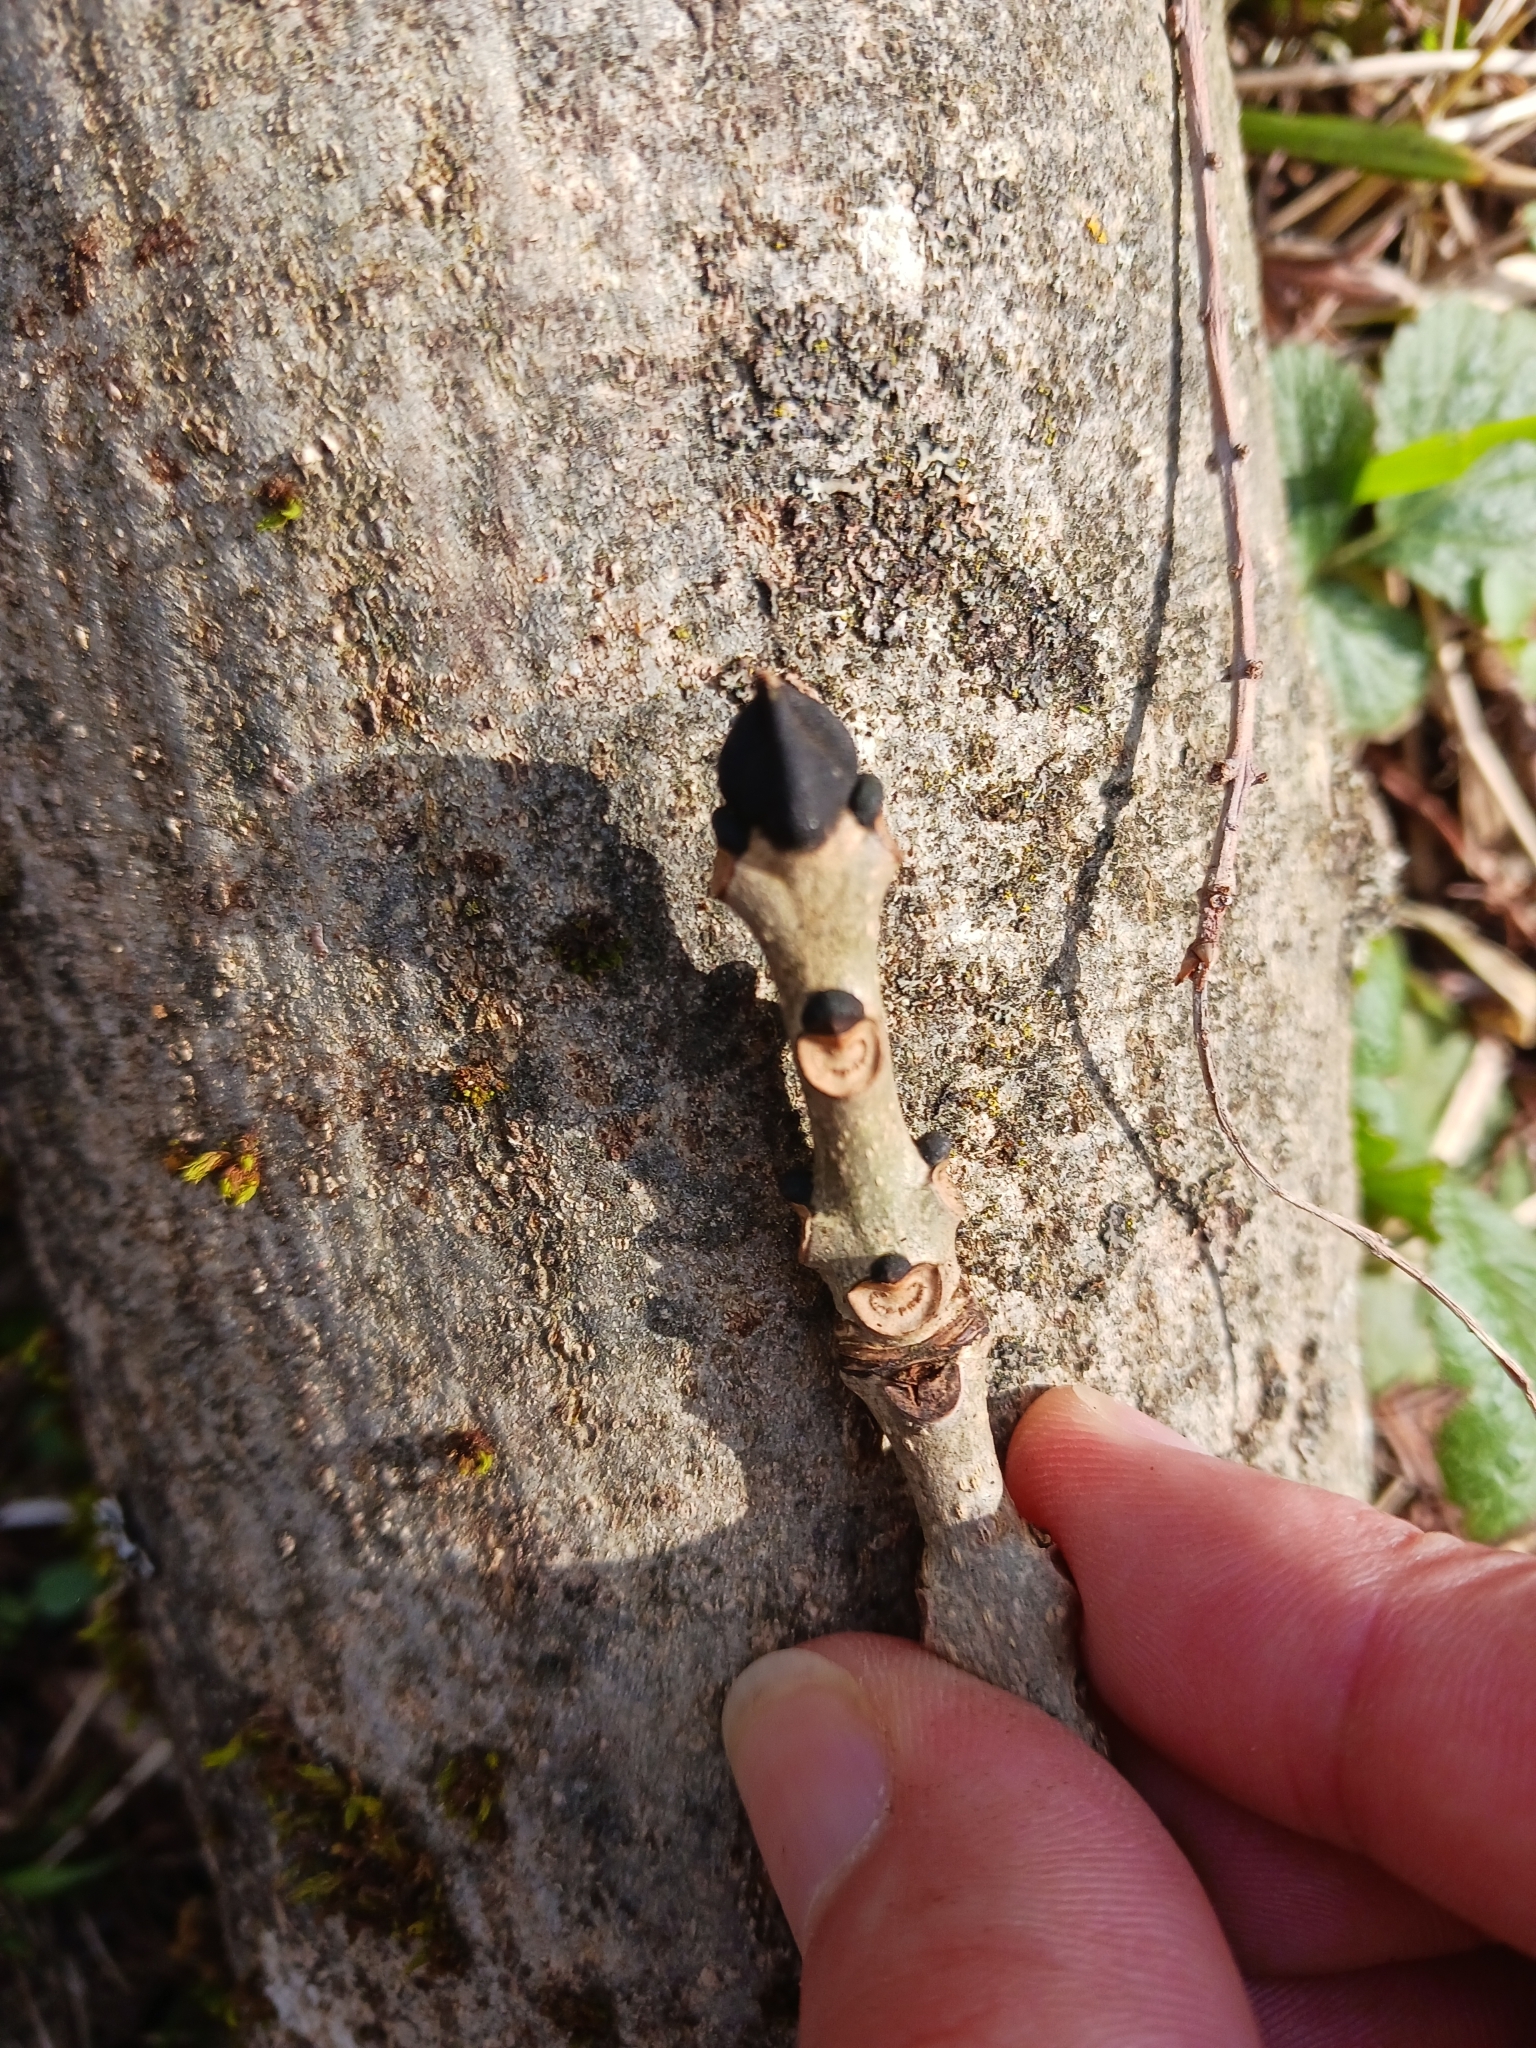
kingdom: Plantae
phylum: Tracheophyta
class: Magnoliopsida
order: Lamiales
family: Oleaceae
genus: Fraxinus
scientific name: Fraxinus excelsior
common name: European ash
